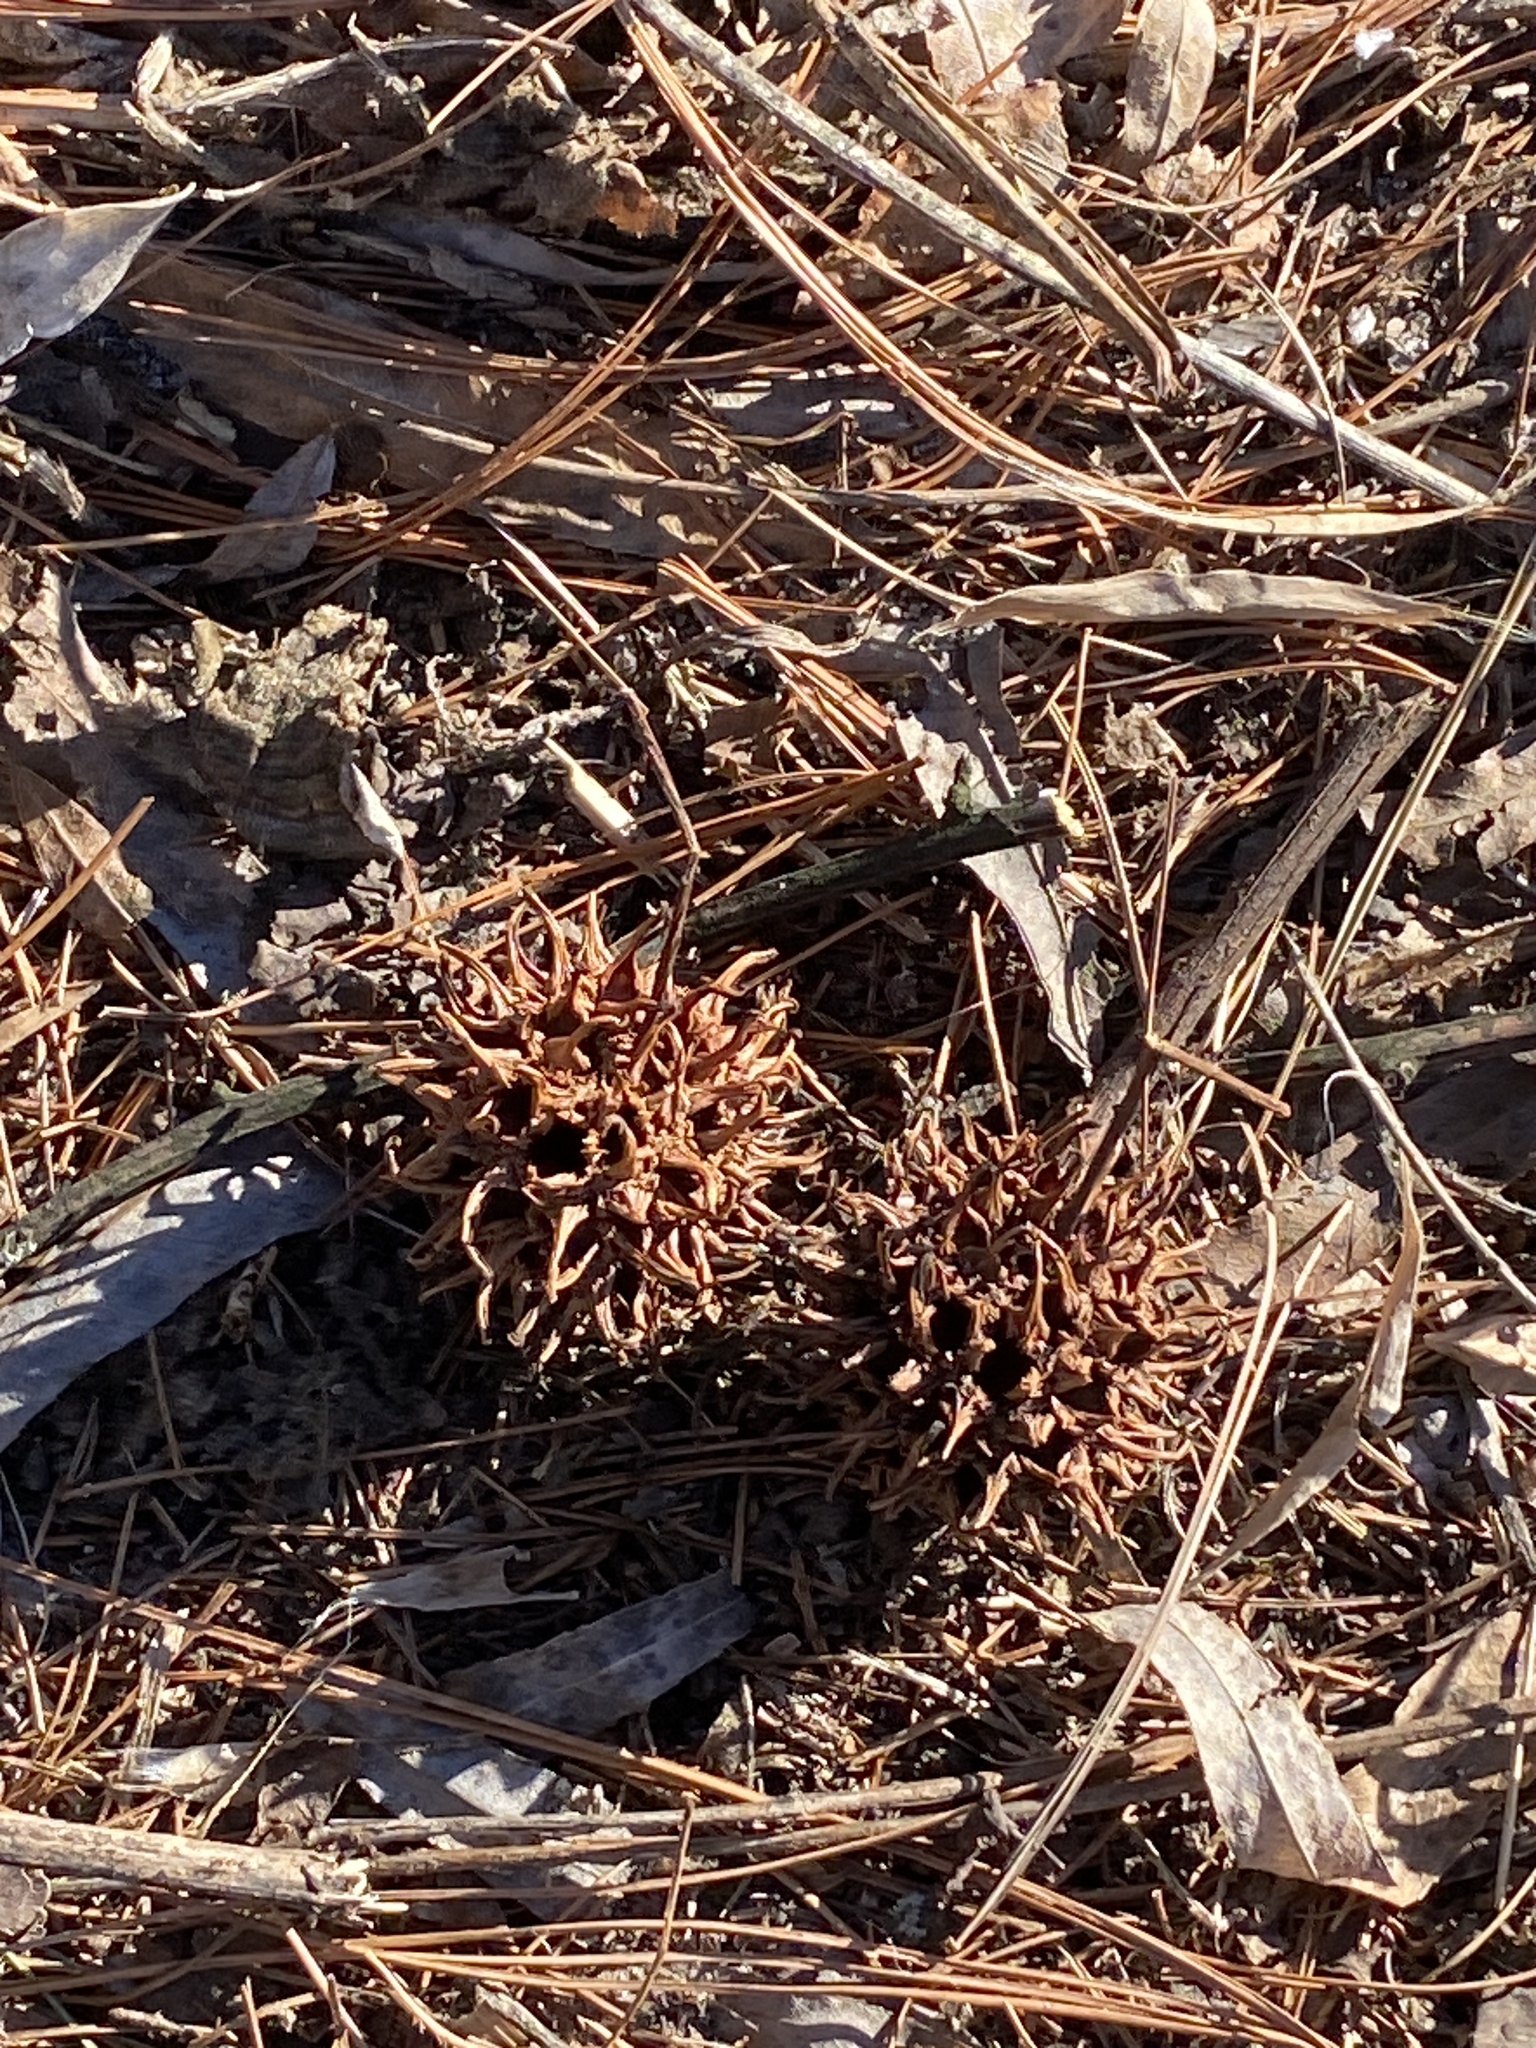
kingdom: Plantae
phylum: Tracheophyta
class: Magnoliopsida
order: Saxifragales
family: Altingiaceae
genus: Liquidambar
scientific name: Liquidambar styraciflua
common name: Sweet gum
